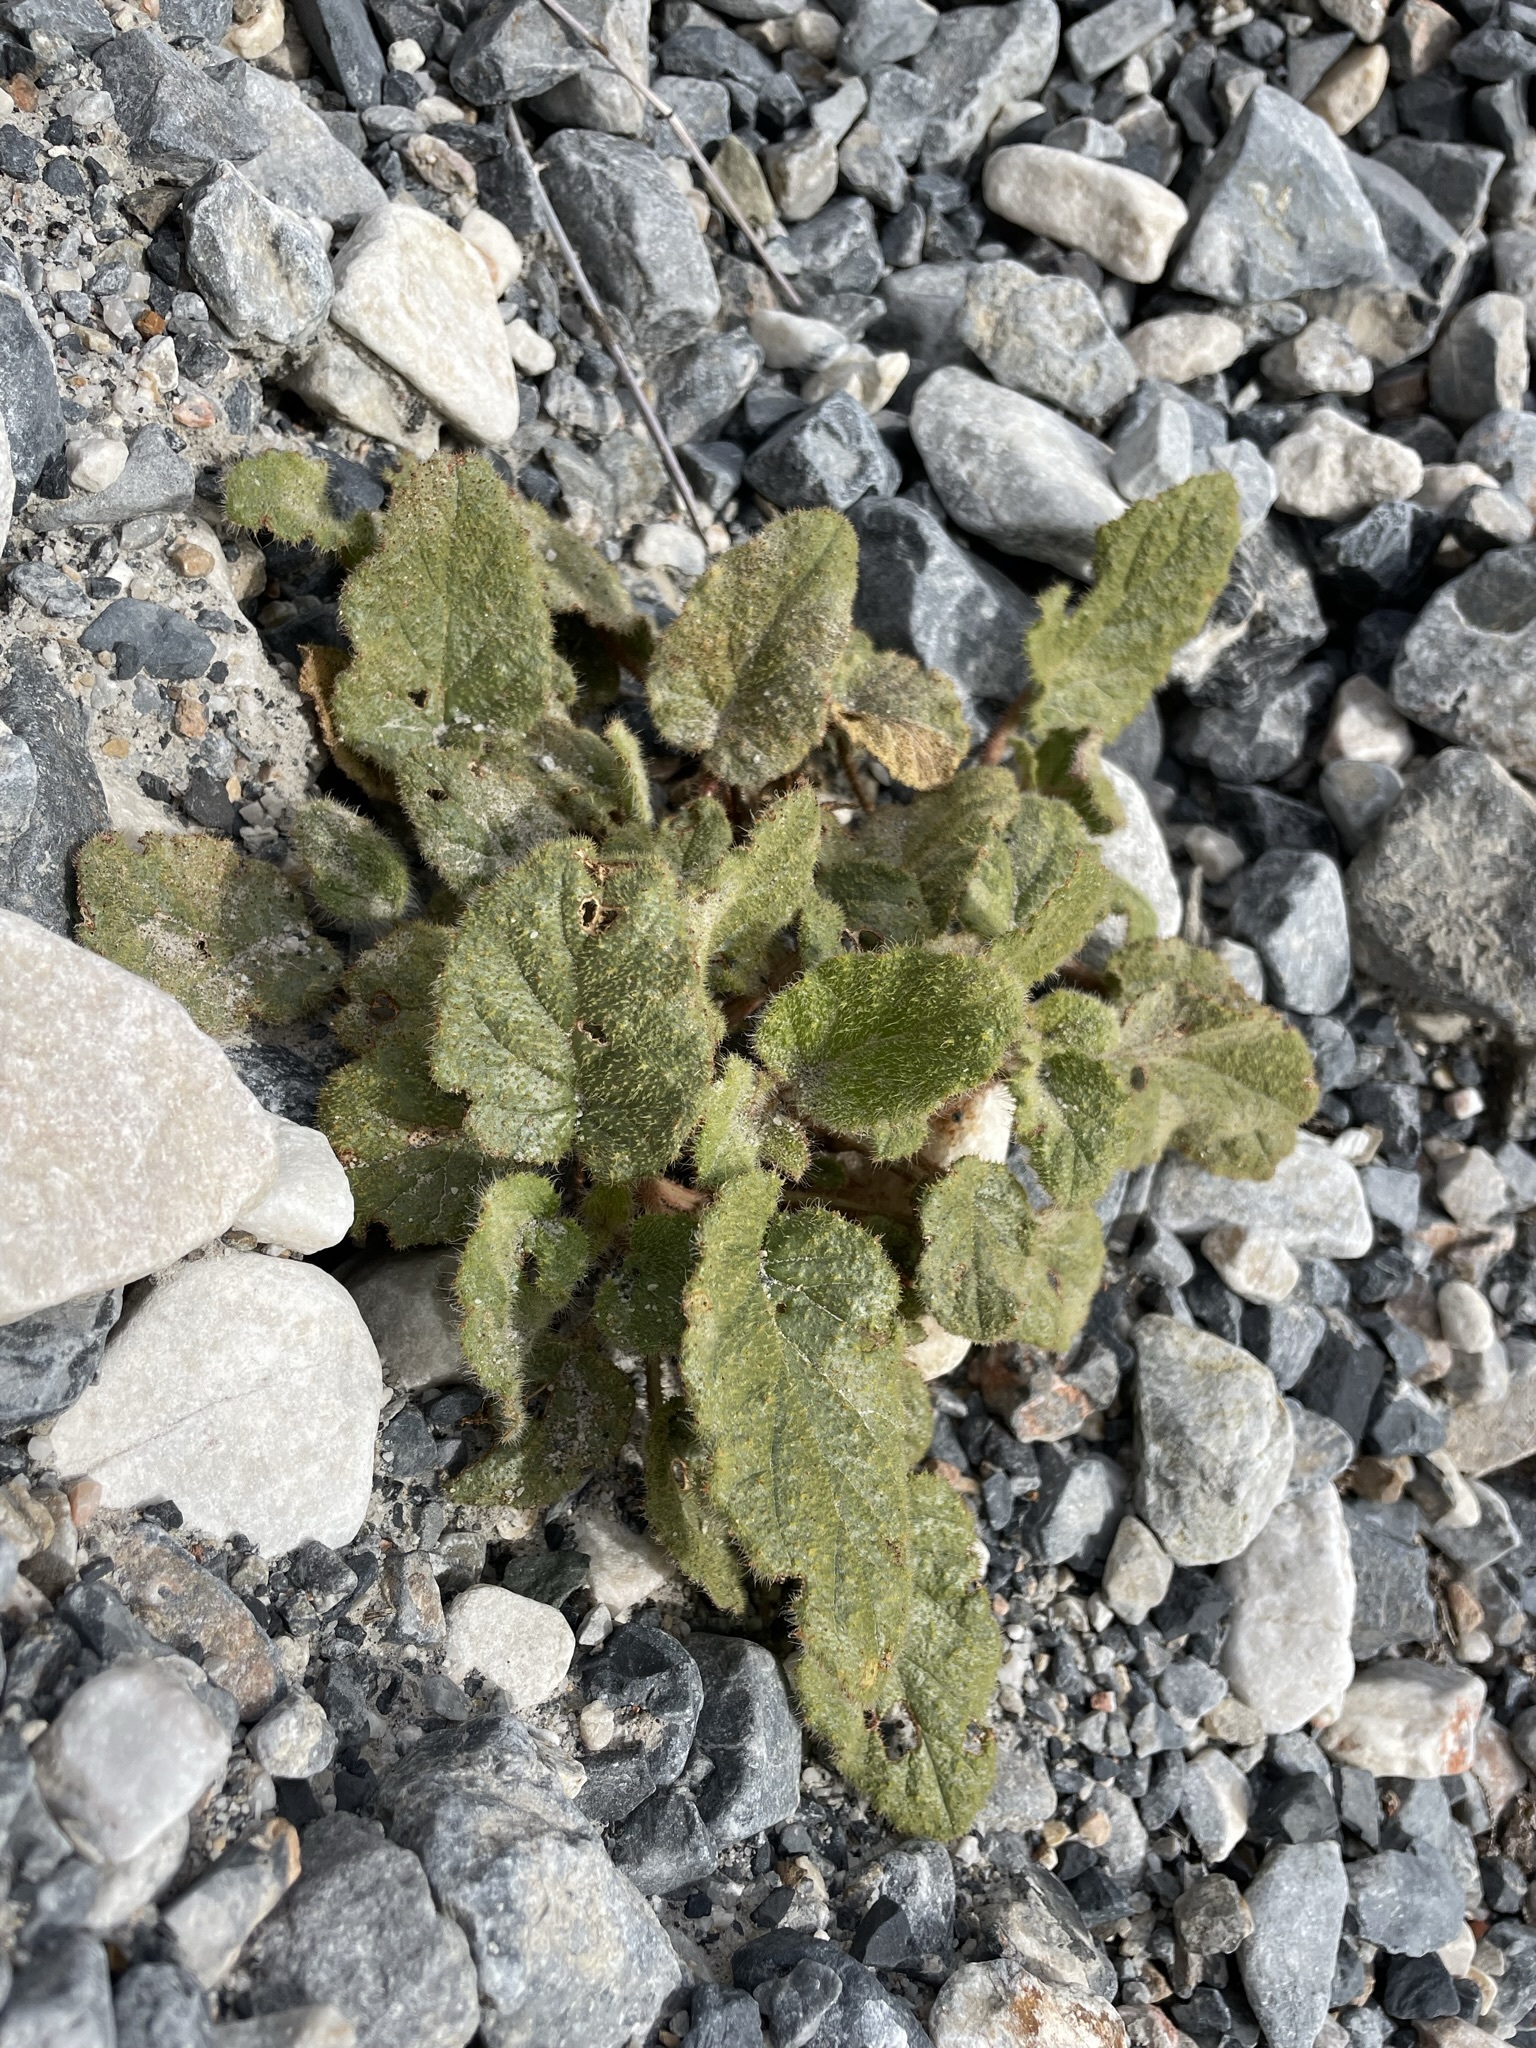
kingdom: Plantae
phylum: Tracheophyta
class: Magnoliopsida
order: Caryophyllales
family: Nyctaginaceae
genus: Anulocaulis
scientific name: Anulocaulis annulatus
